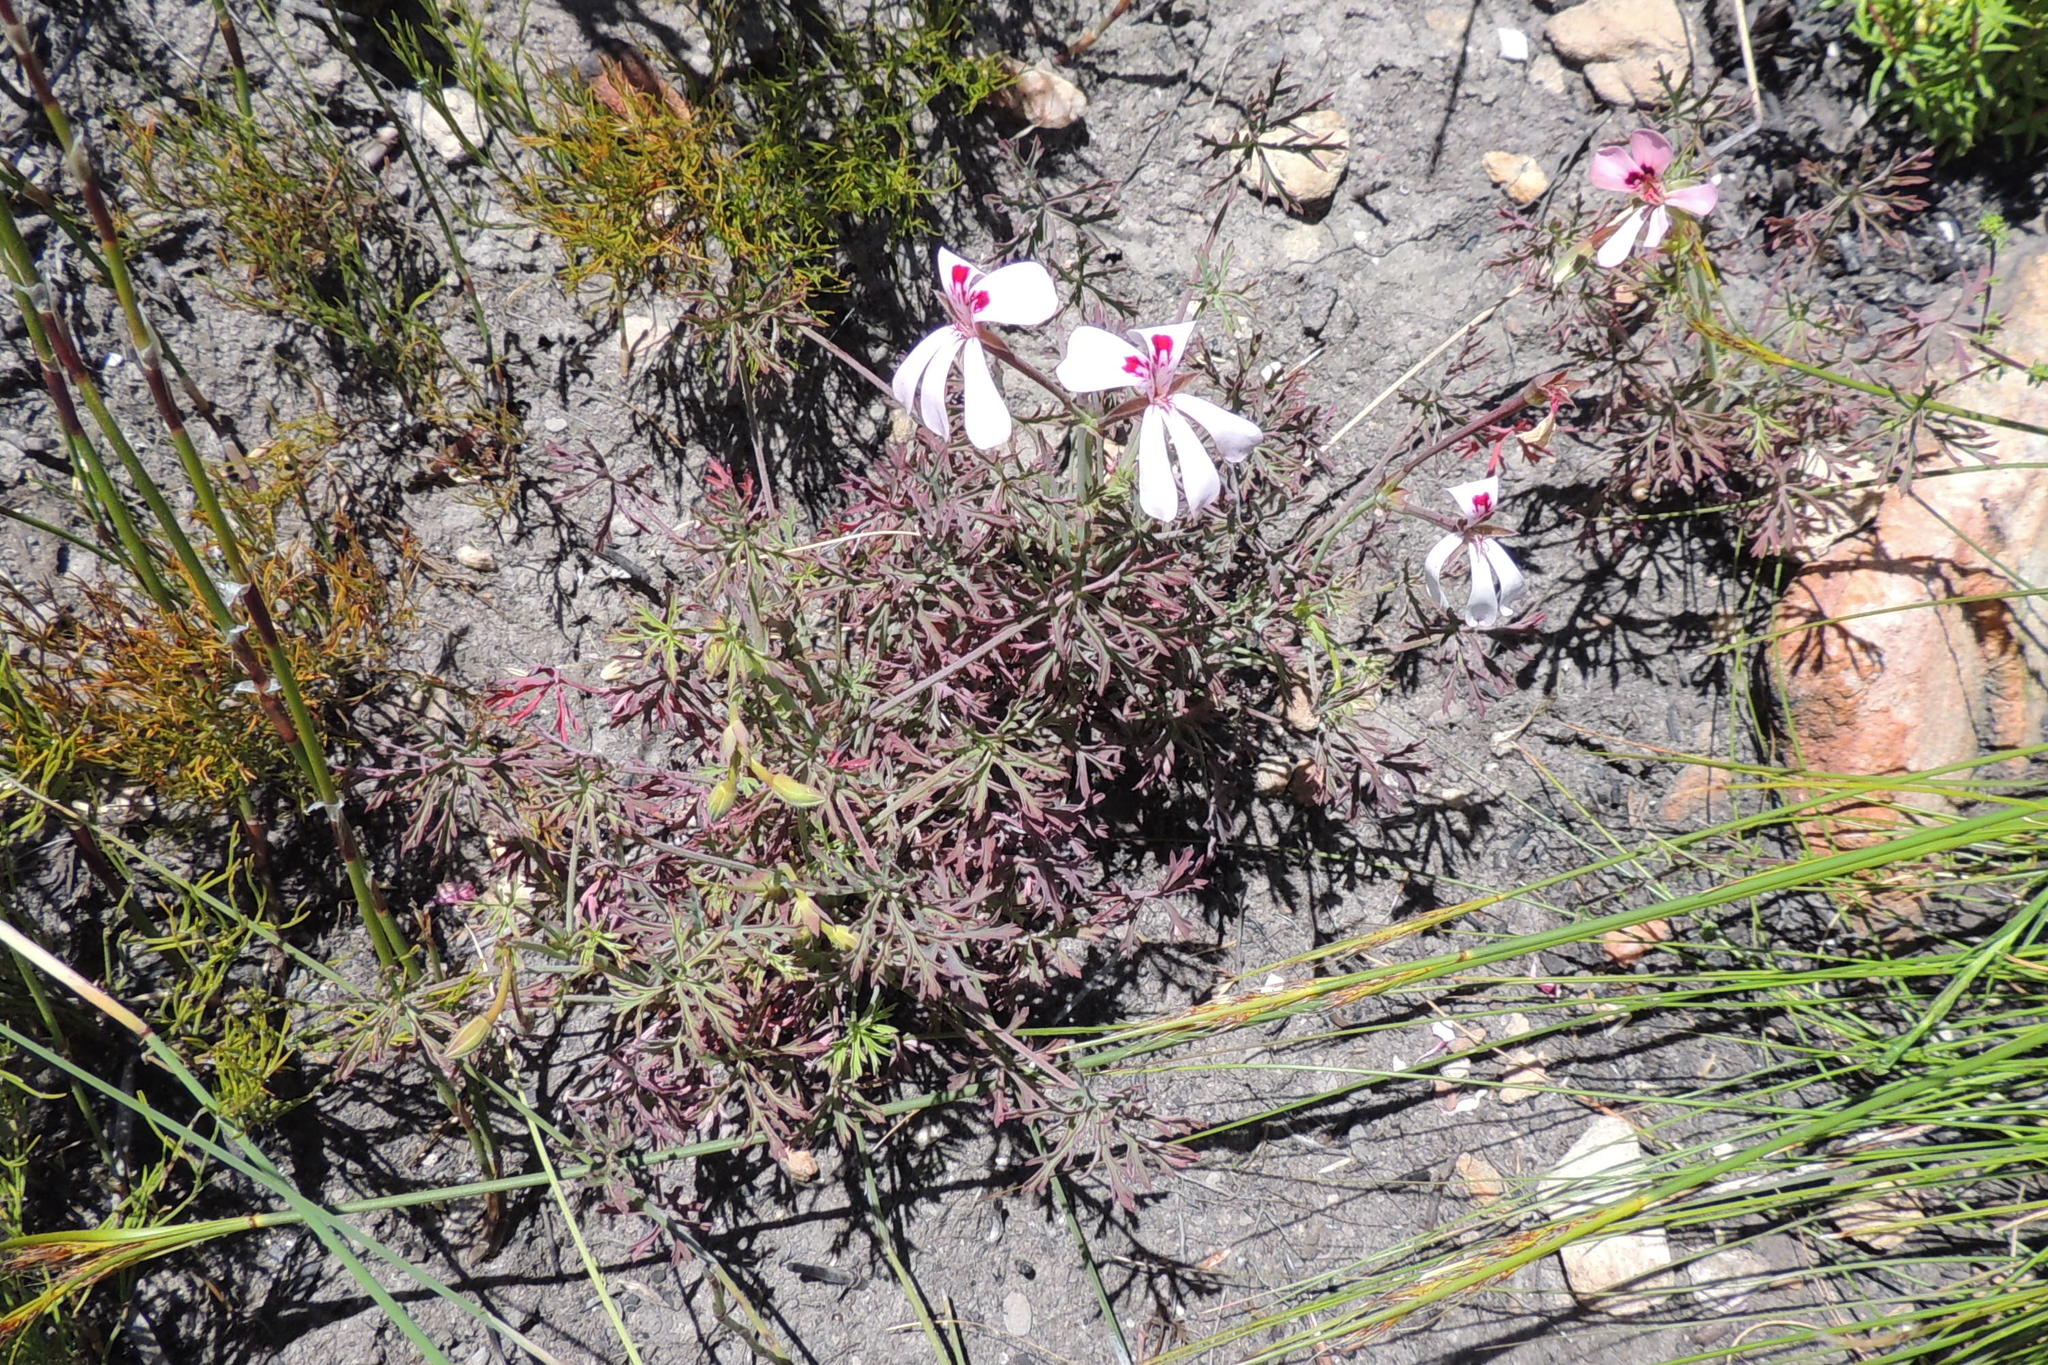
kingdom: Plantae
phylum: Tracheophyta
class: Magnoliopsida
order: Geraniales
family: Geraniaceae
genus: Pelargonium
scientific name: Pelargonium patulum
